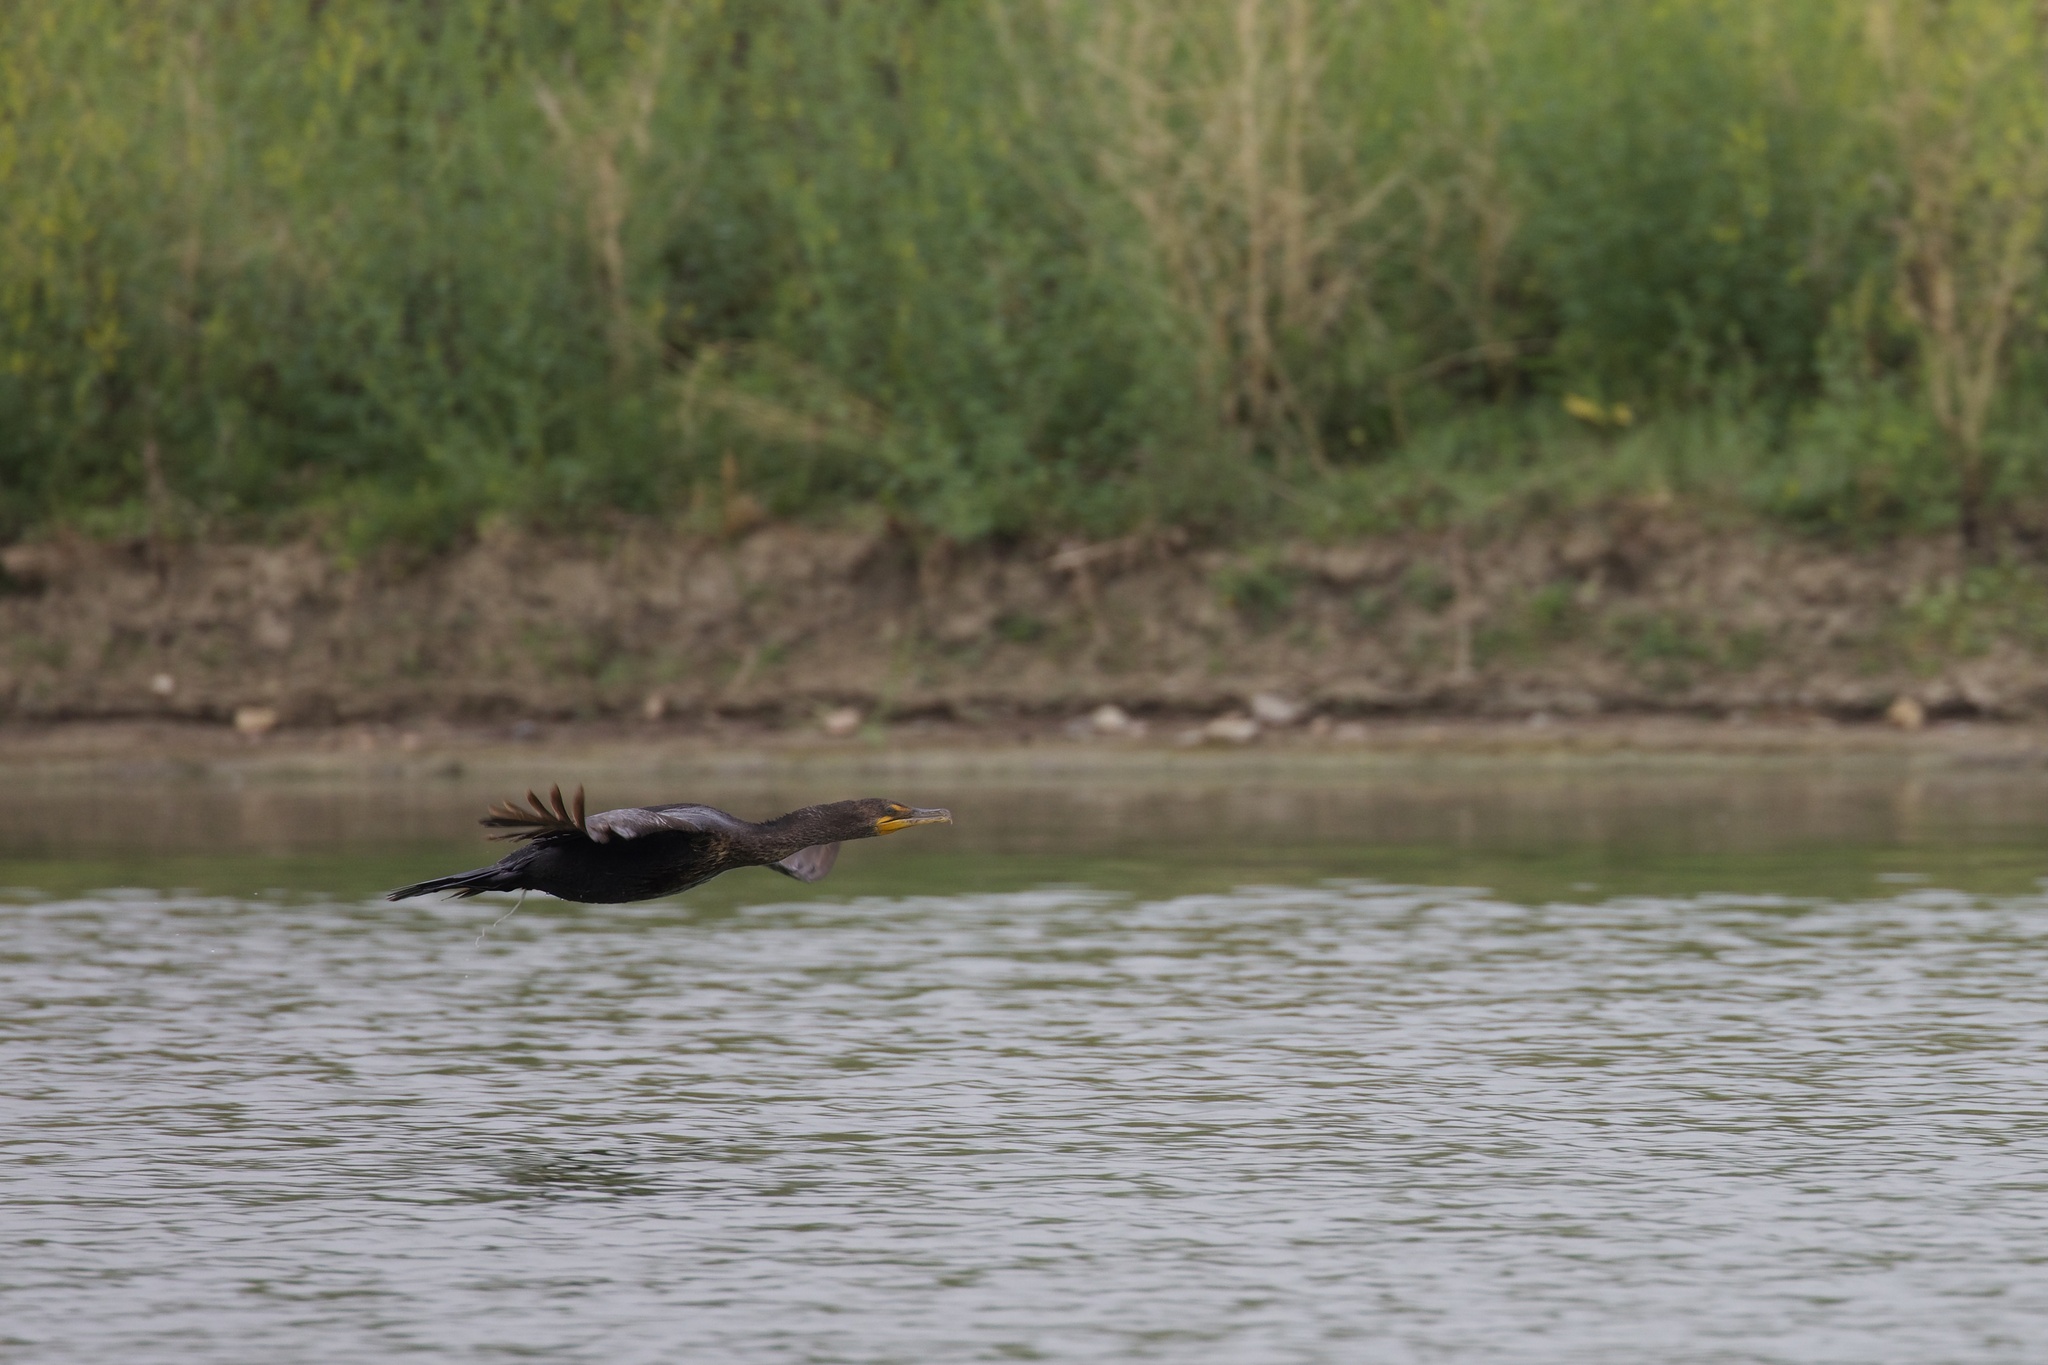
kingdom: Animalia
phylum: Chordata
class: Aves
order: Suliformes
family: Phalacrocoracidae
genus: Phalacrocorax
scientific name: Phalacrocorax auritus
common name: Double-crested cormorant
